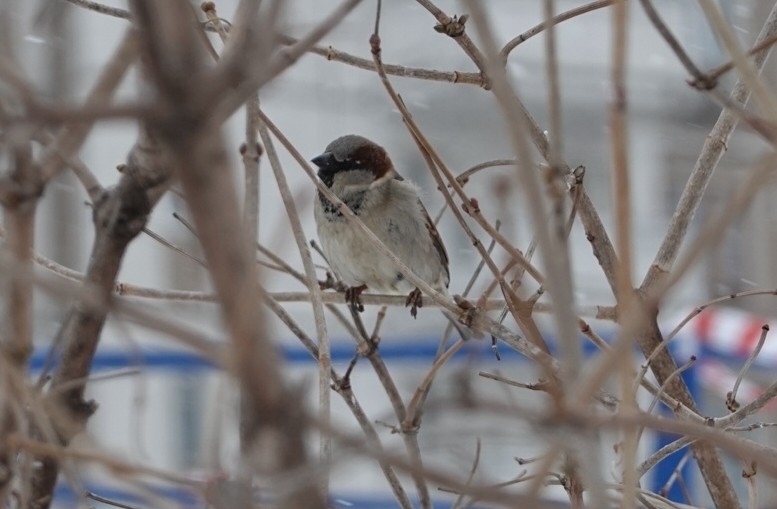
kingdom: Animalia
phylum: Chordata
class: Aves
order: Passeriformes
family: Passeridae
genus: Passer
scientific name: Passer domesticus
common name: House sparrow
